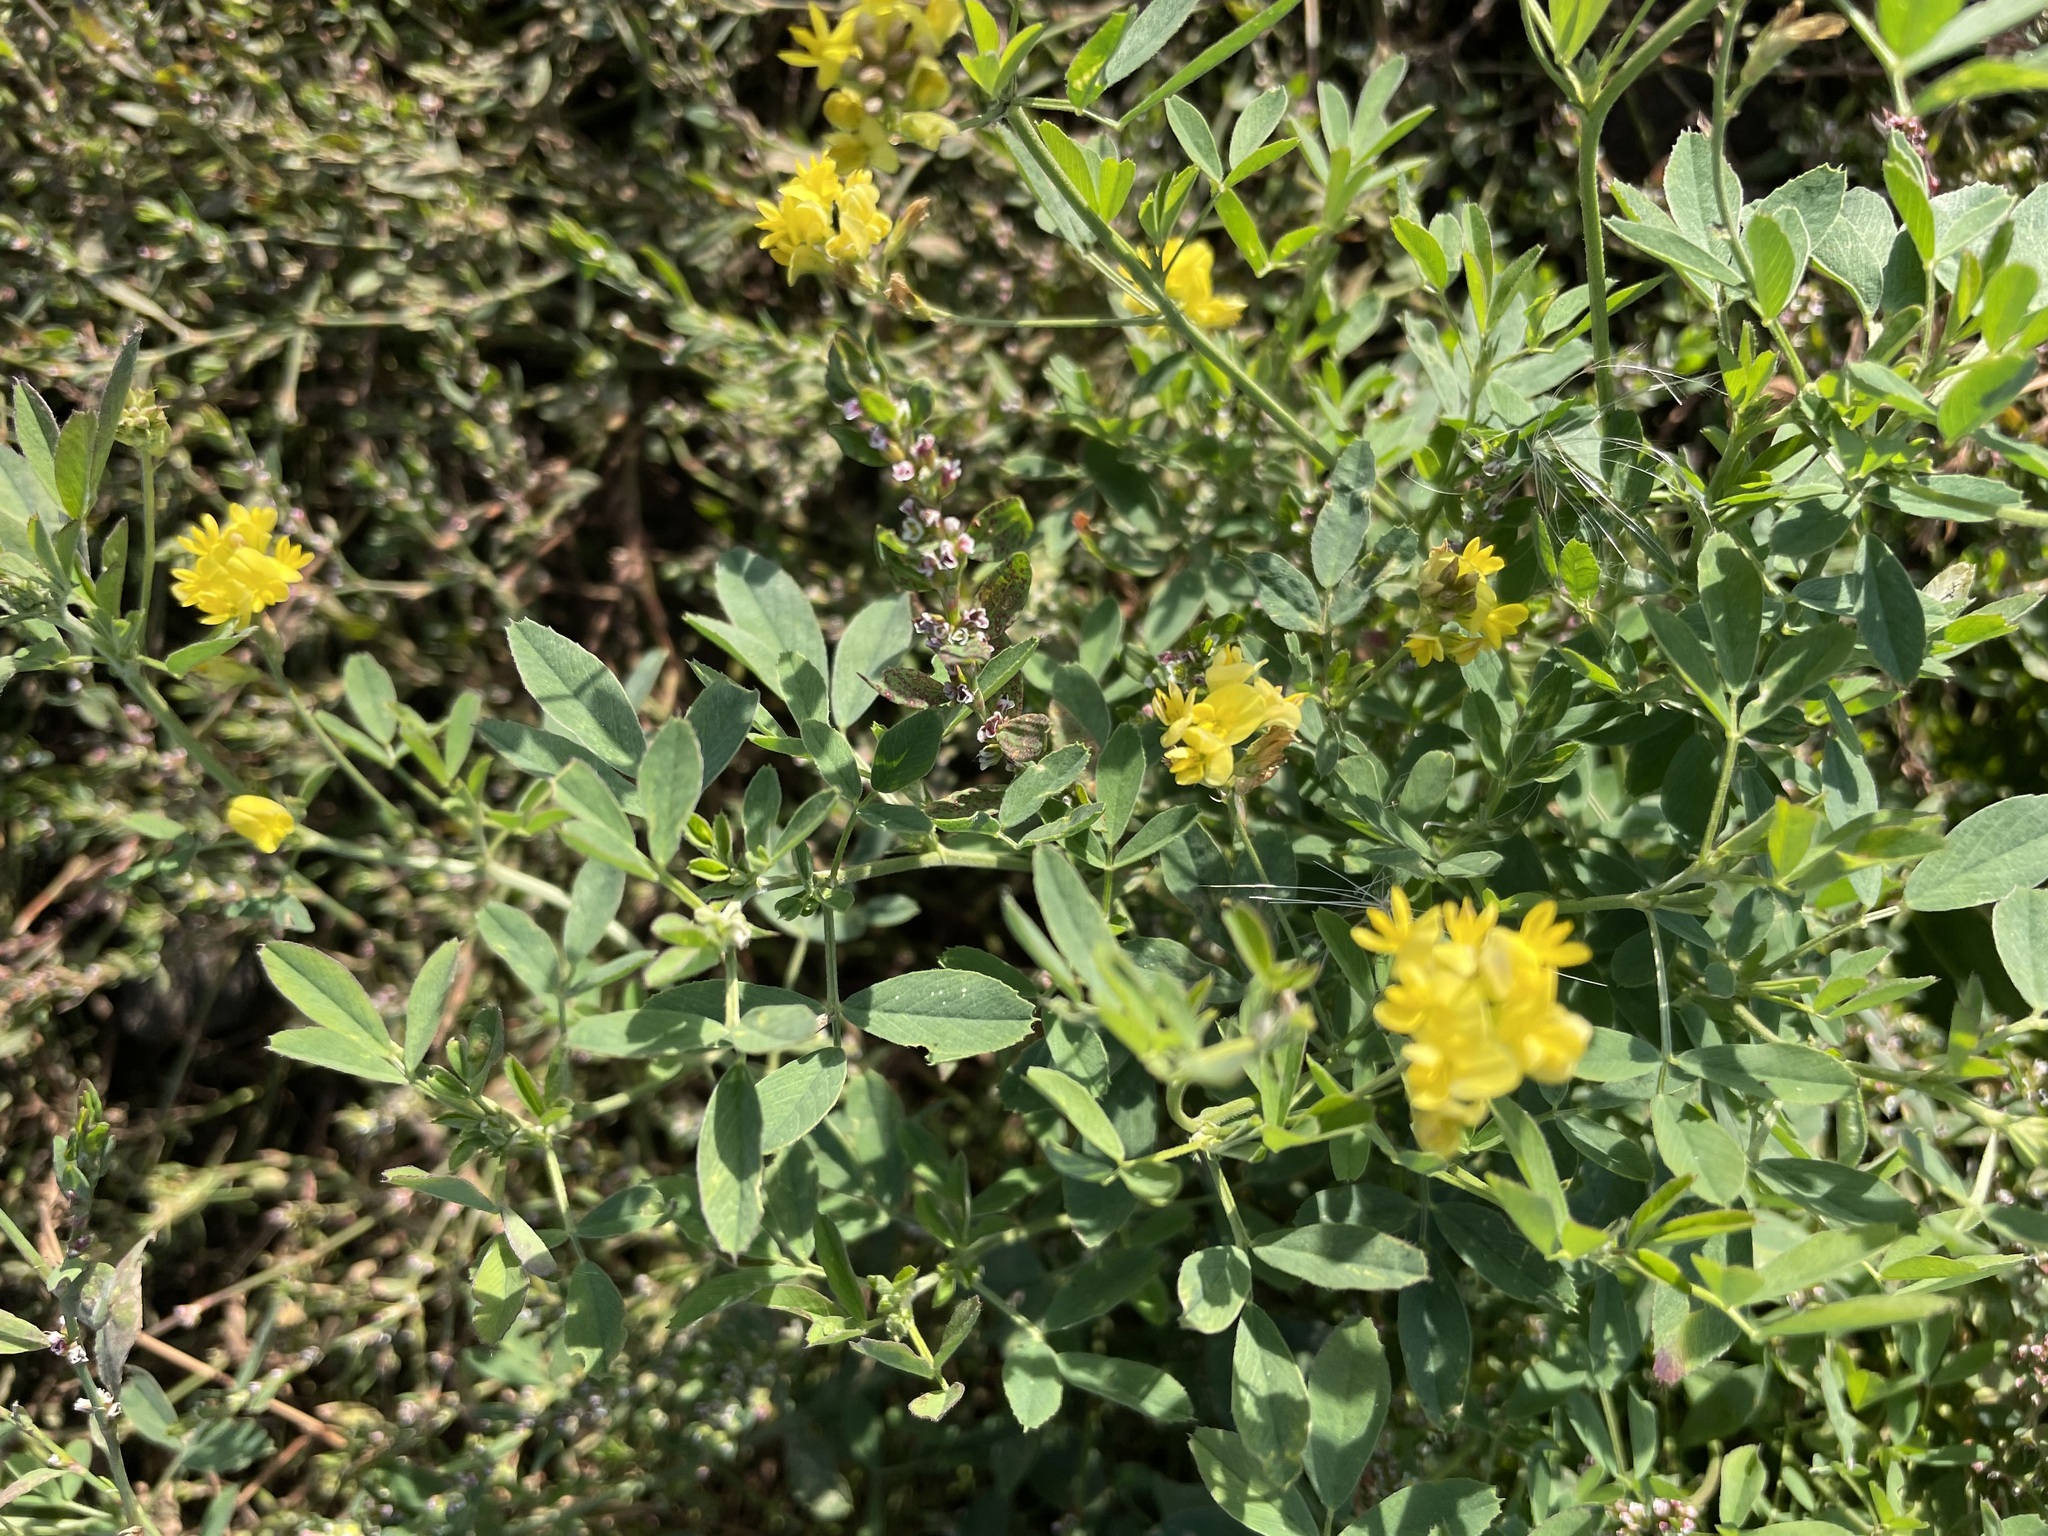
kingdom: Plantae
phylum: Tracheophyta
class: Magnoliopsida
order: Fabales
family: Fabaceae
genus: Medicago
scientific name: Medicago falcata
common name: Sickle medick
